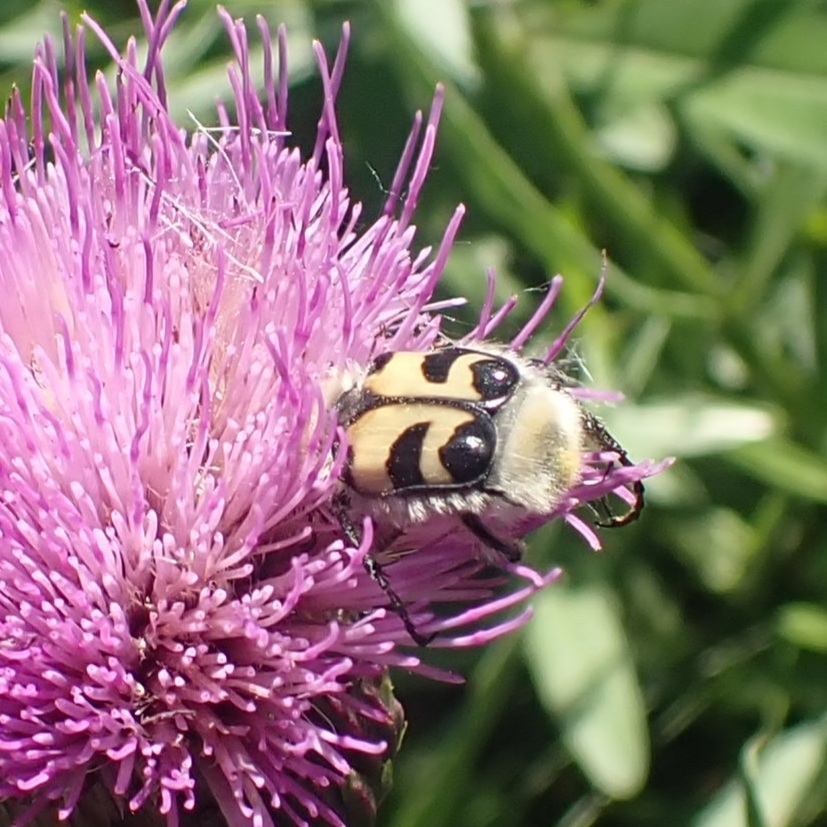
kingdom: Animalia
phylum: Arthropoda
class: Insecta
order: Coleoptera
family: Scarabaeidae
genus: Trichius
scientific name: Trichius fasciatus
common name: Bee beetle
